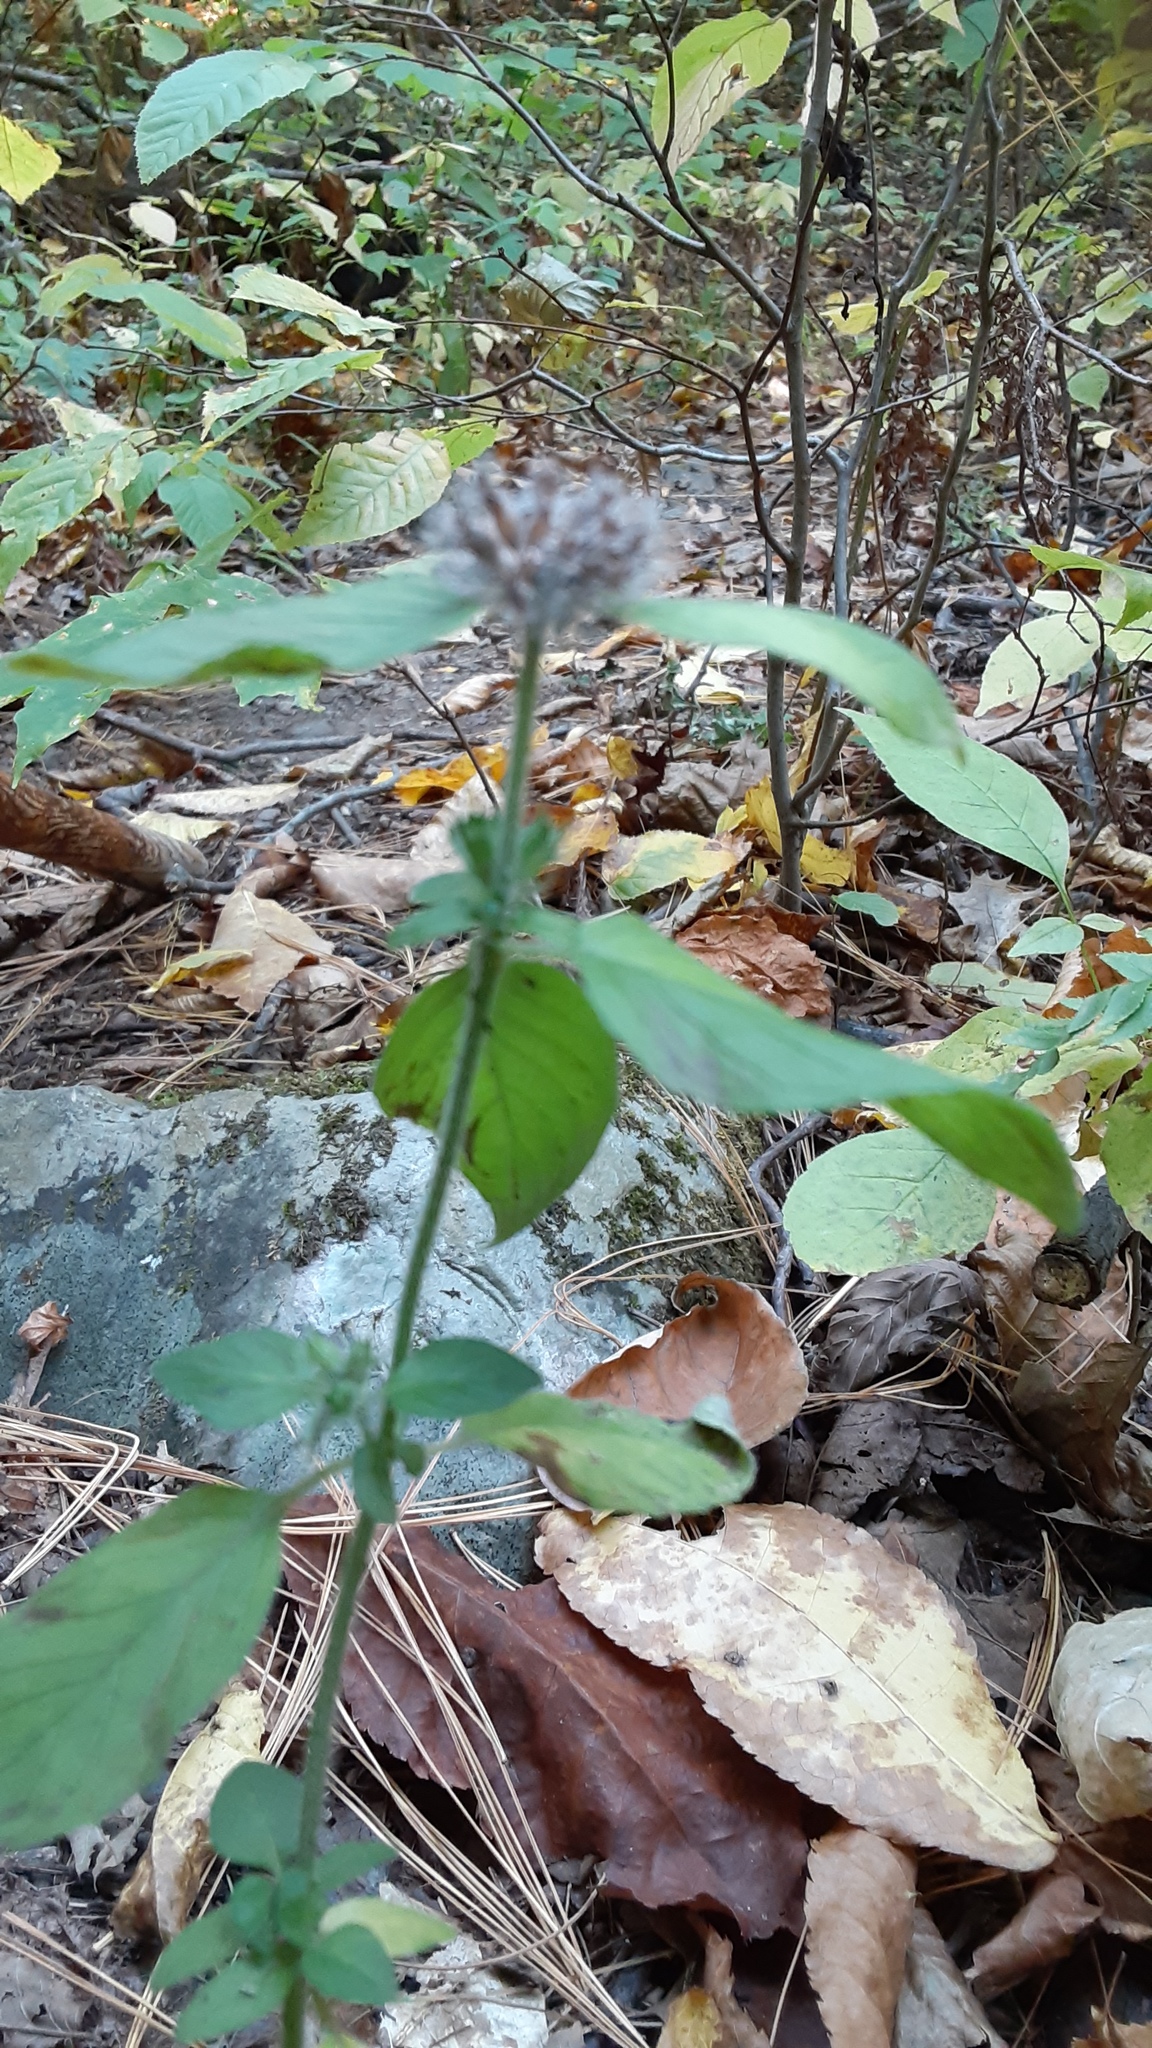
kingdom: Plantae
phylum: Tracheophyta
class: Magnoliopsida
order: Lamiales
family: Lamiaceae
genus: Clinopodium
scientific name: Clinopodium vulgare
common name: Wild basil
